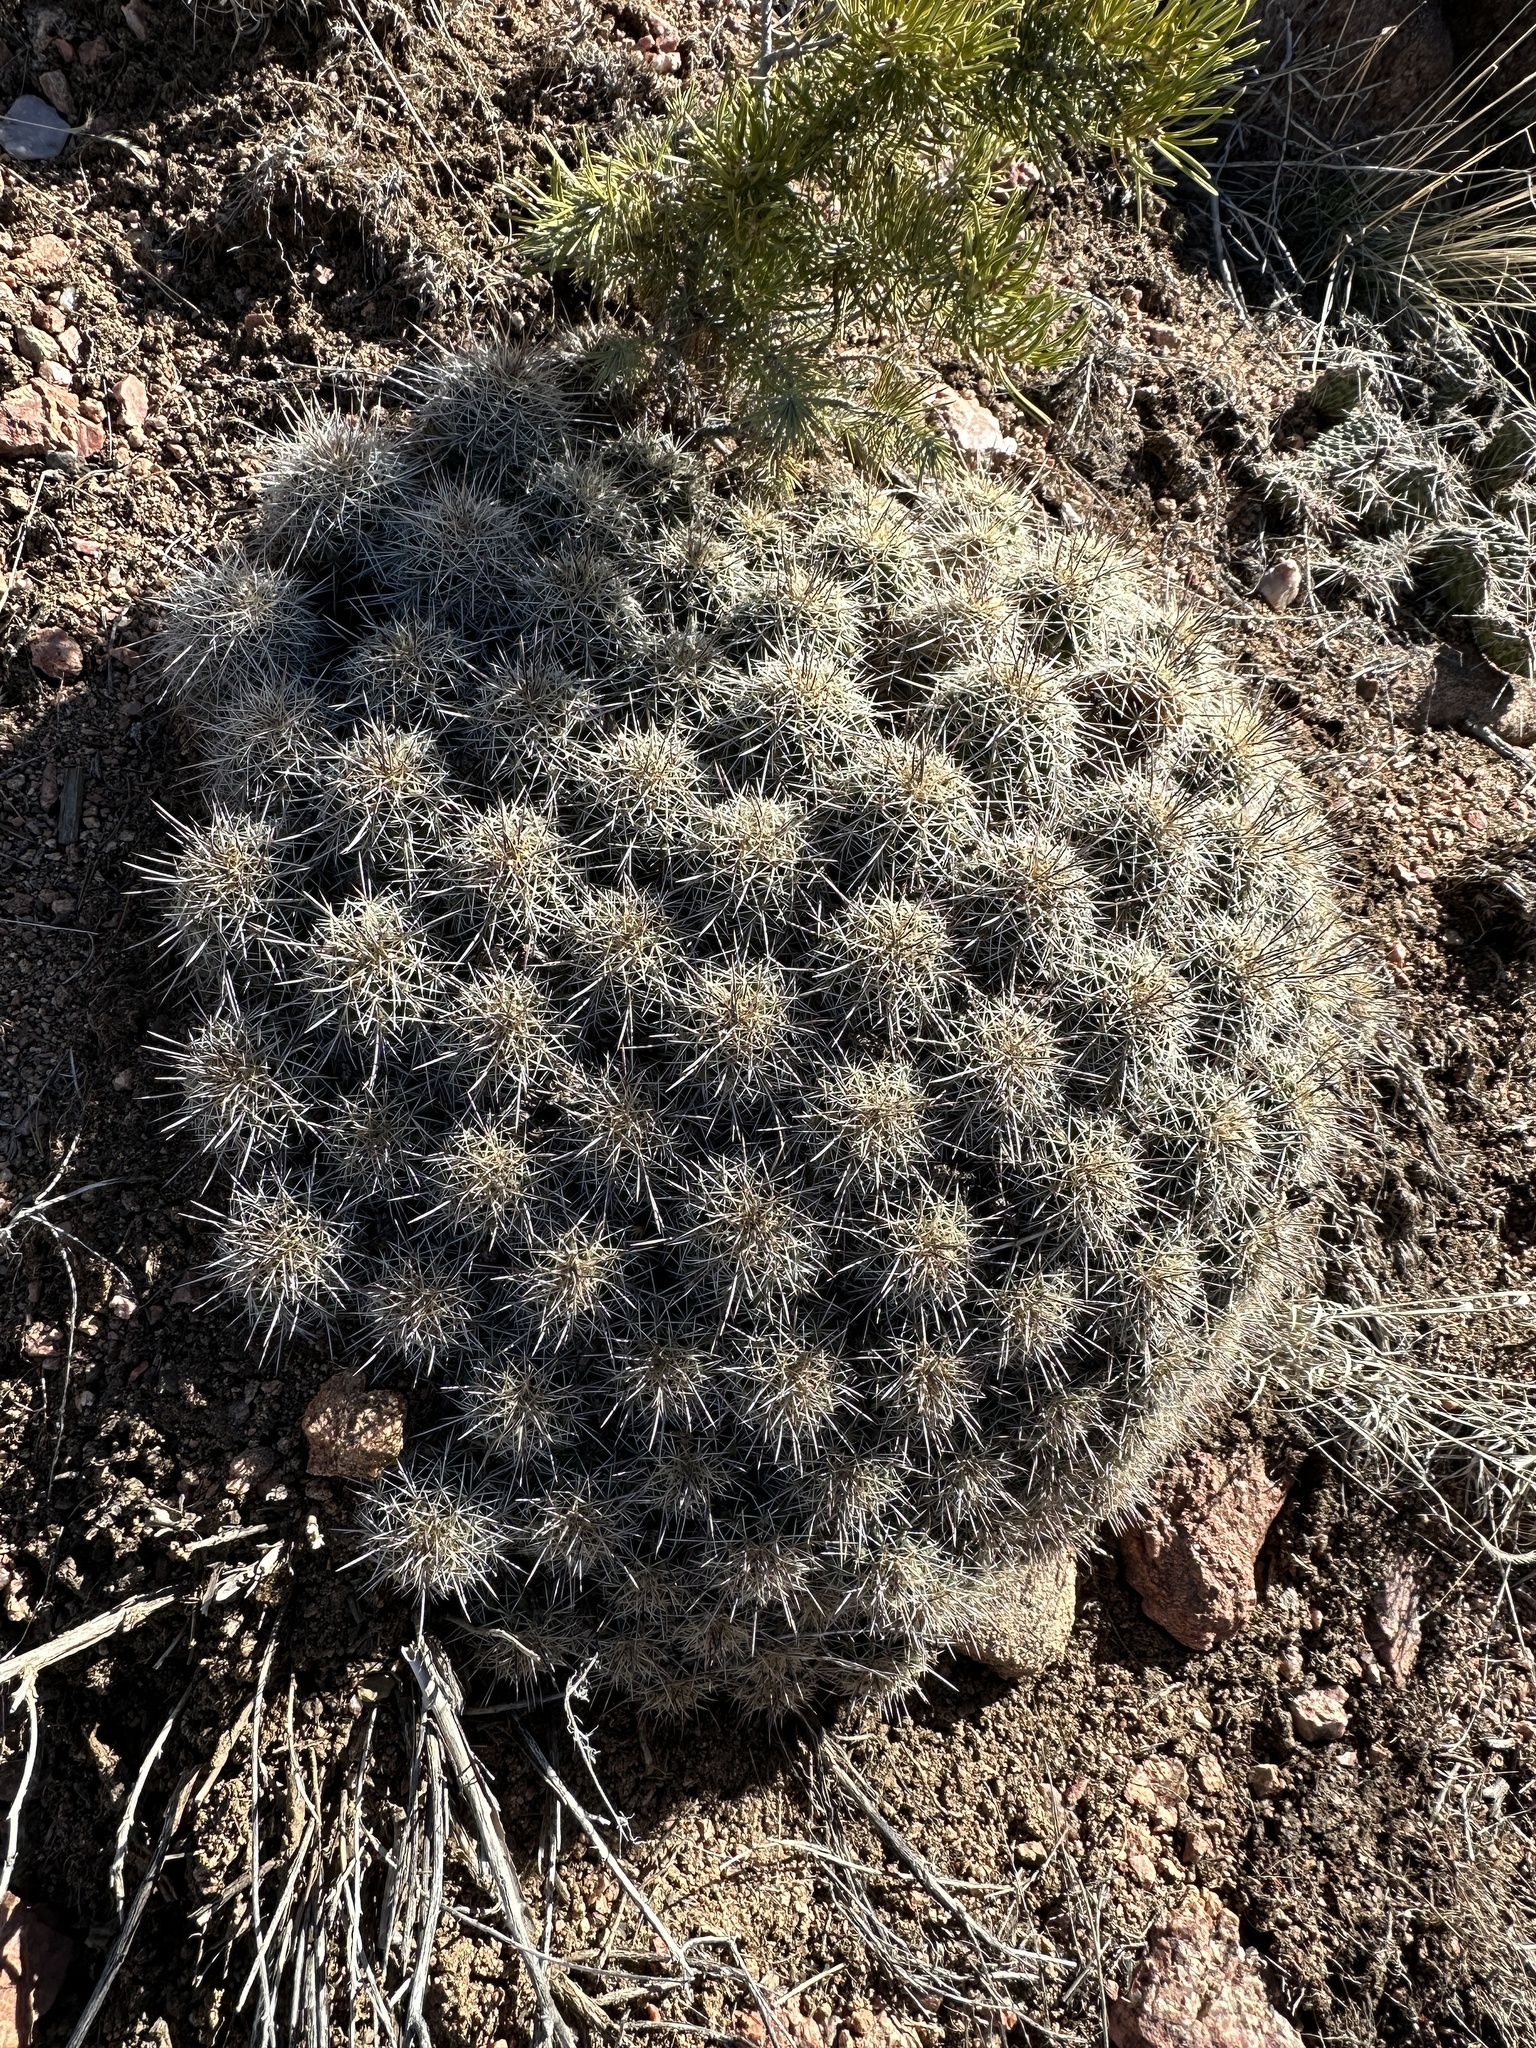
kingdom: Plantae
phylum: Tracheophyta
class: Magnoliopsida
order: Caryophyllales
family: Cactaceae
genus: Echinocereus
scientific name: Echinocereus coccineus
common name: Scarlet hedgehog cactus
